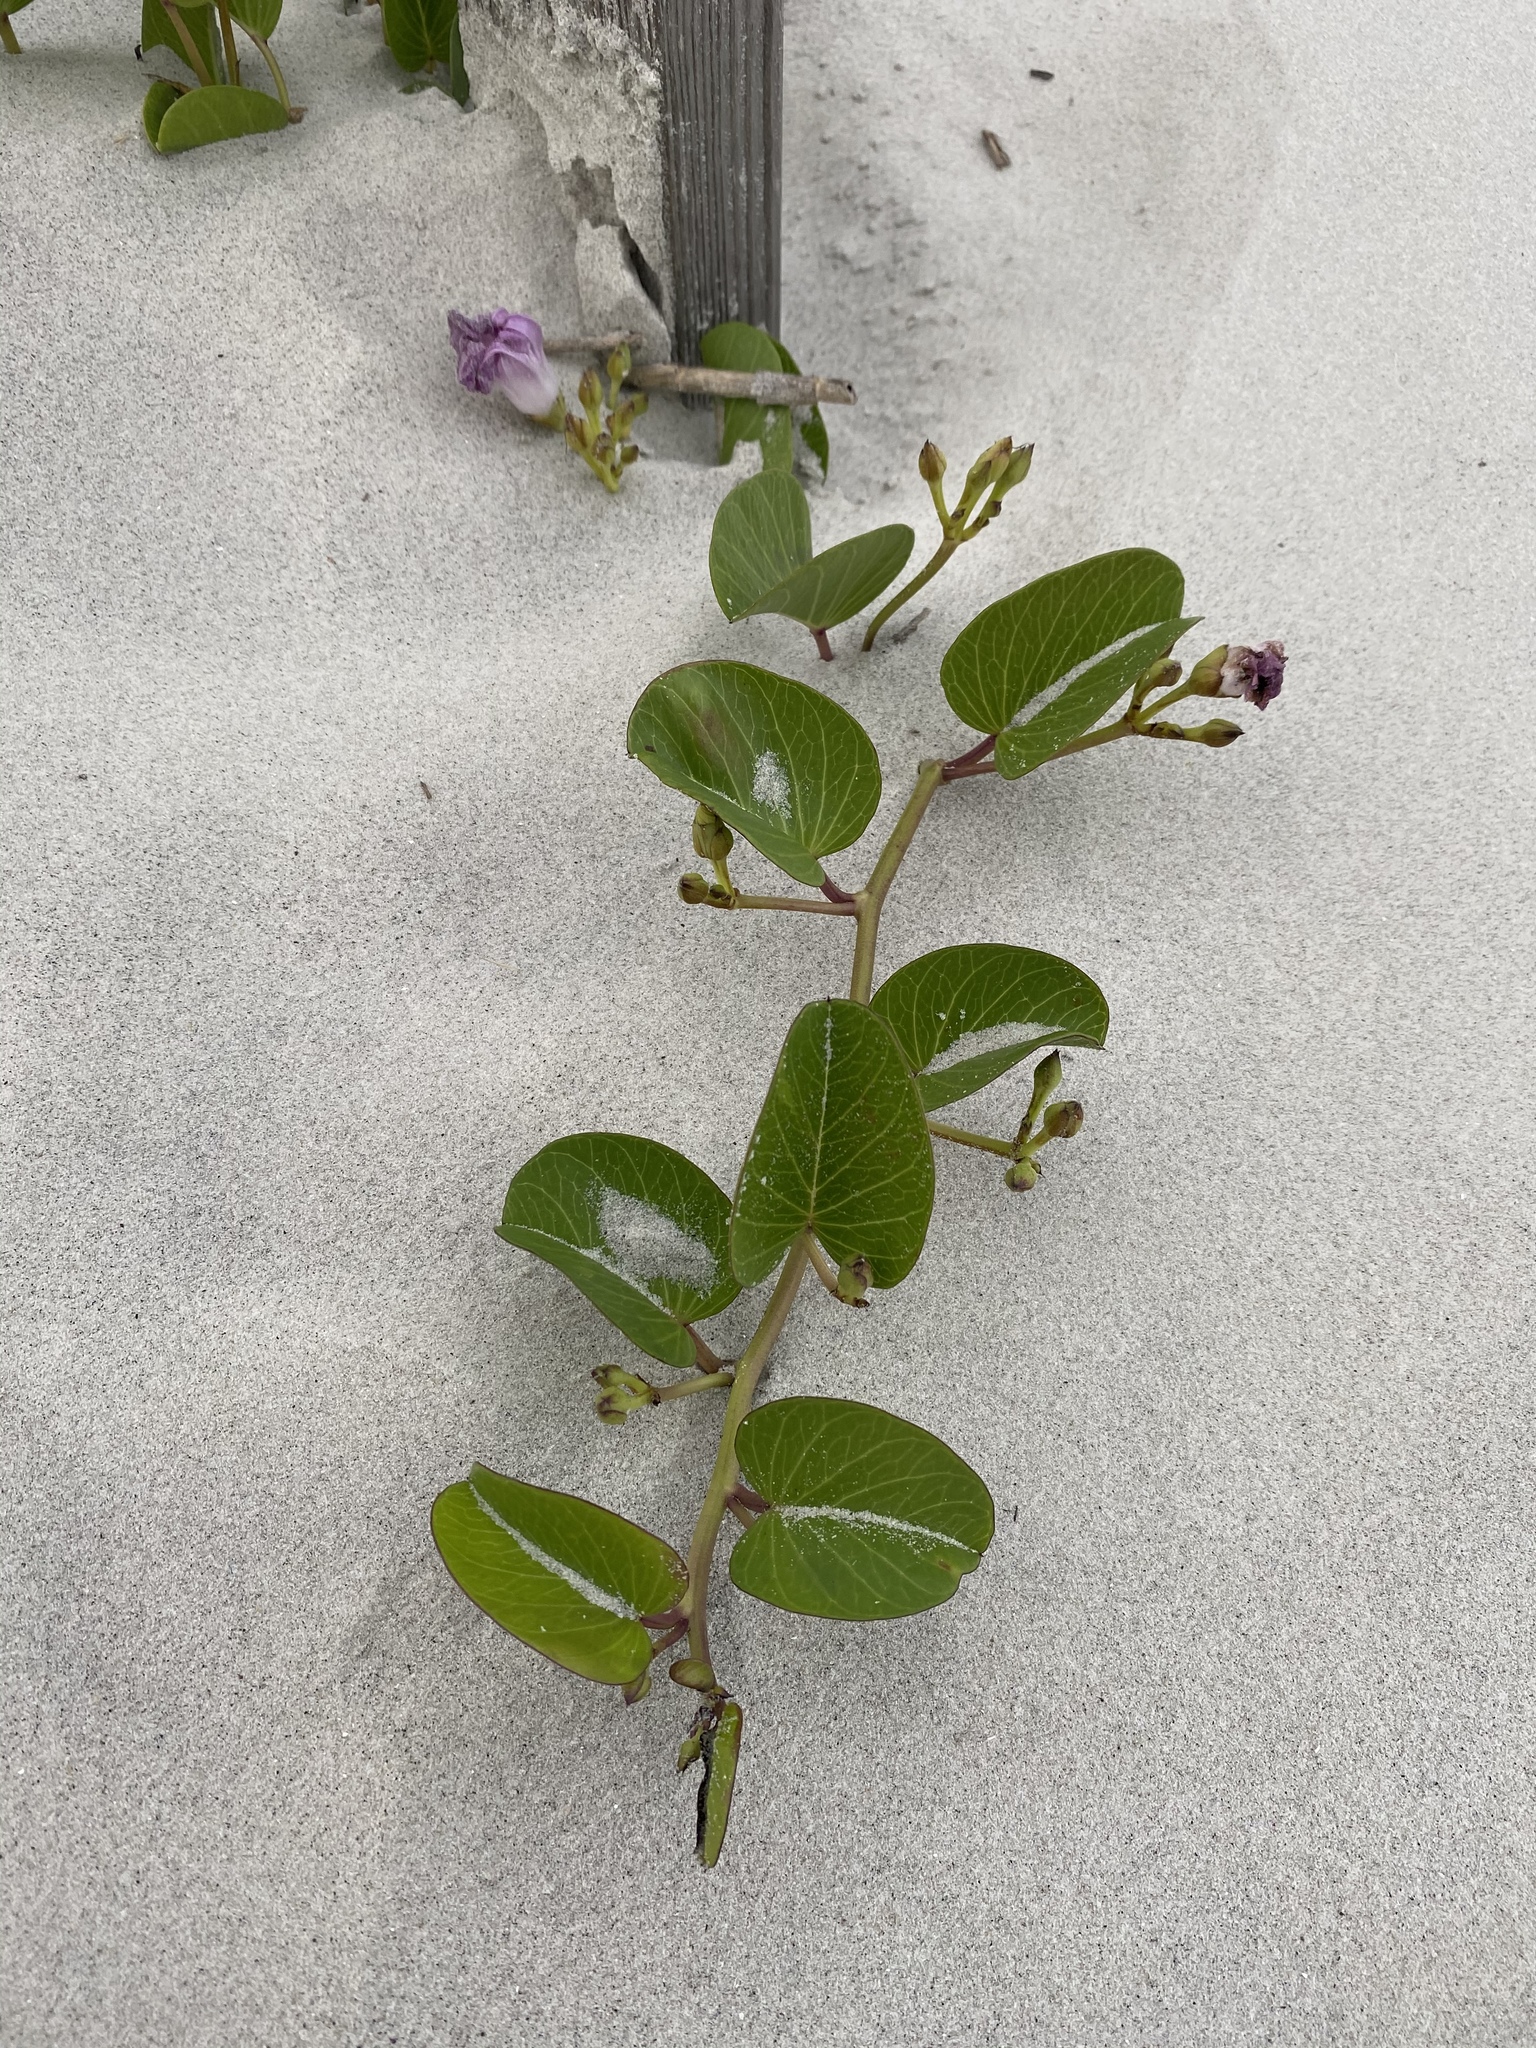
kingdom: Plantae
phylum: Tracheophyta
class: Magnoliopsida
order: Solanales
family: Convolvulaceae
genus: Ipomoea
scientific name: Ipomoea pes-caprae
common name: Beach morning glory
